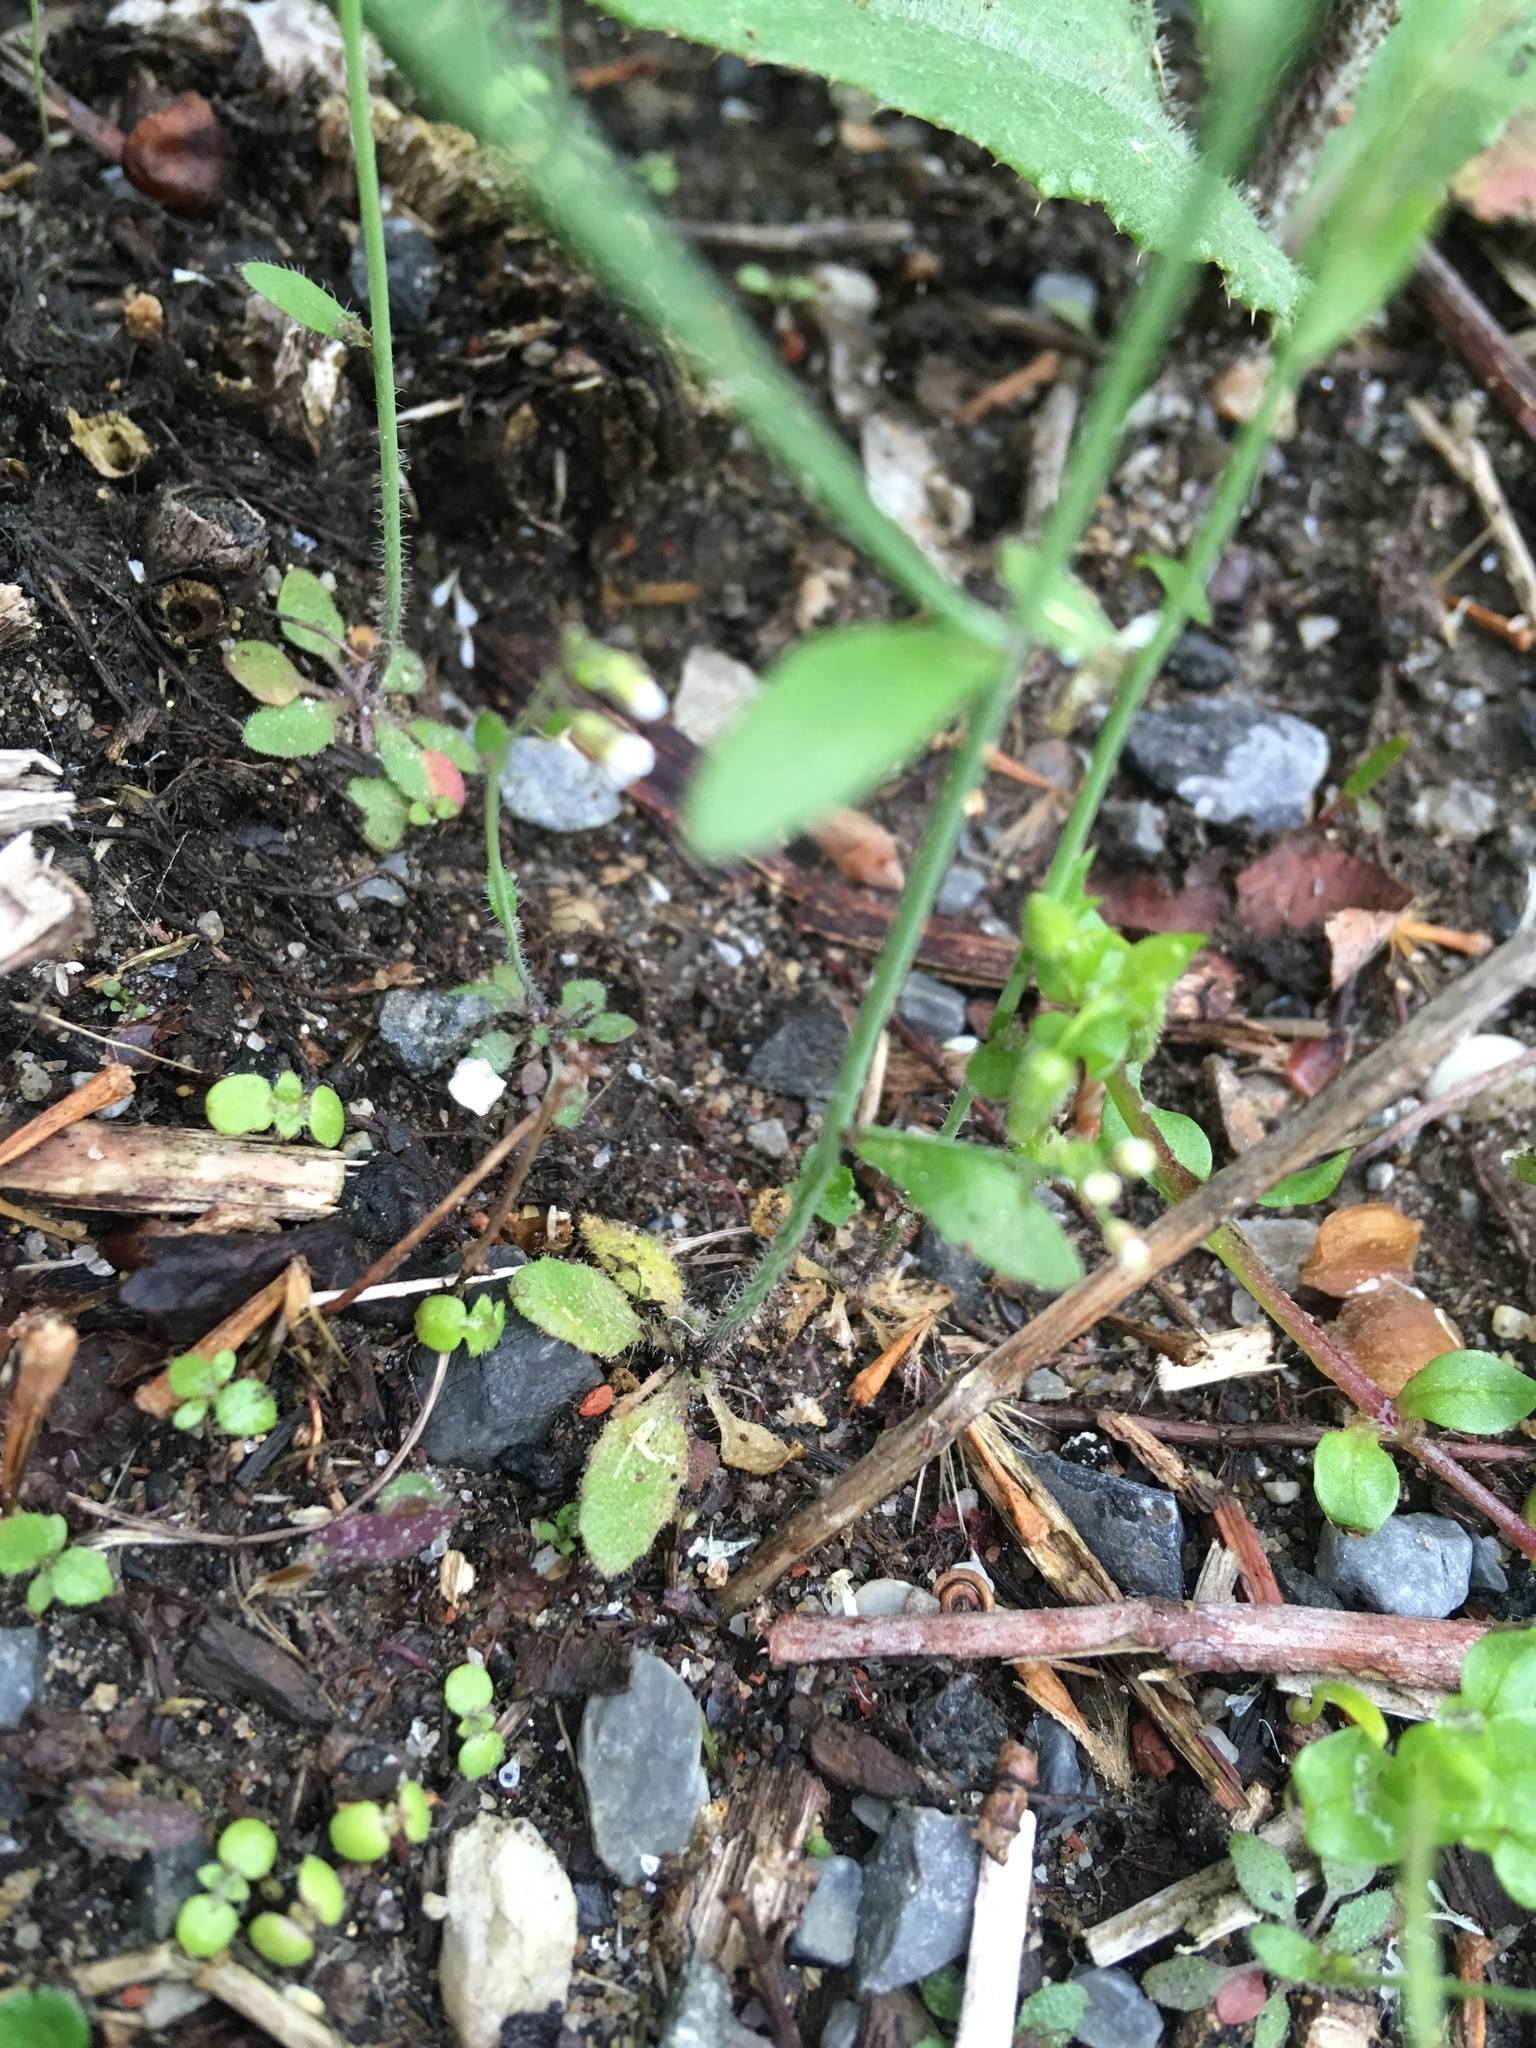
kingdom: Plantae
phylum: Tracheophyta
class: Magnoliopsida
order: Brassicales
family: Brassicaceae
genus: Arabidopsis
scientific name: Arabidopsis thaliana
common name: Thale cress
